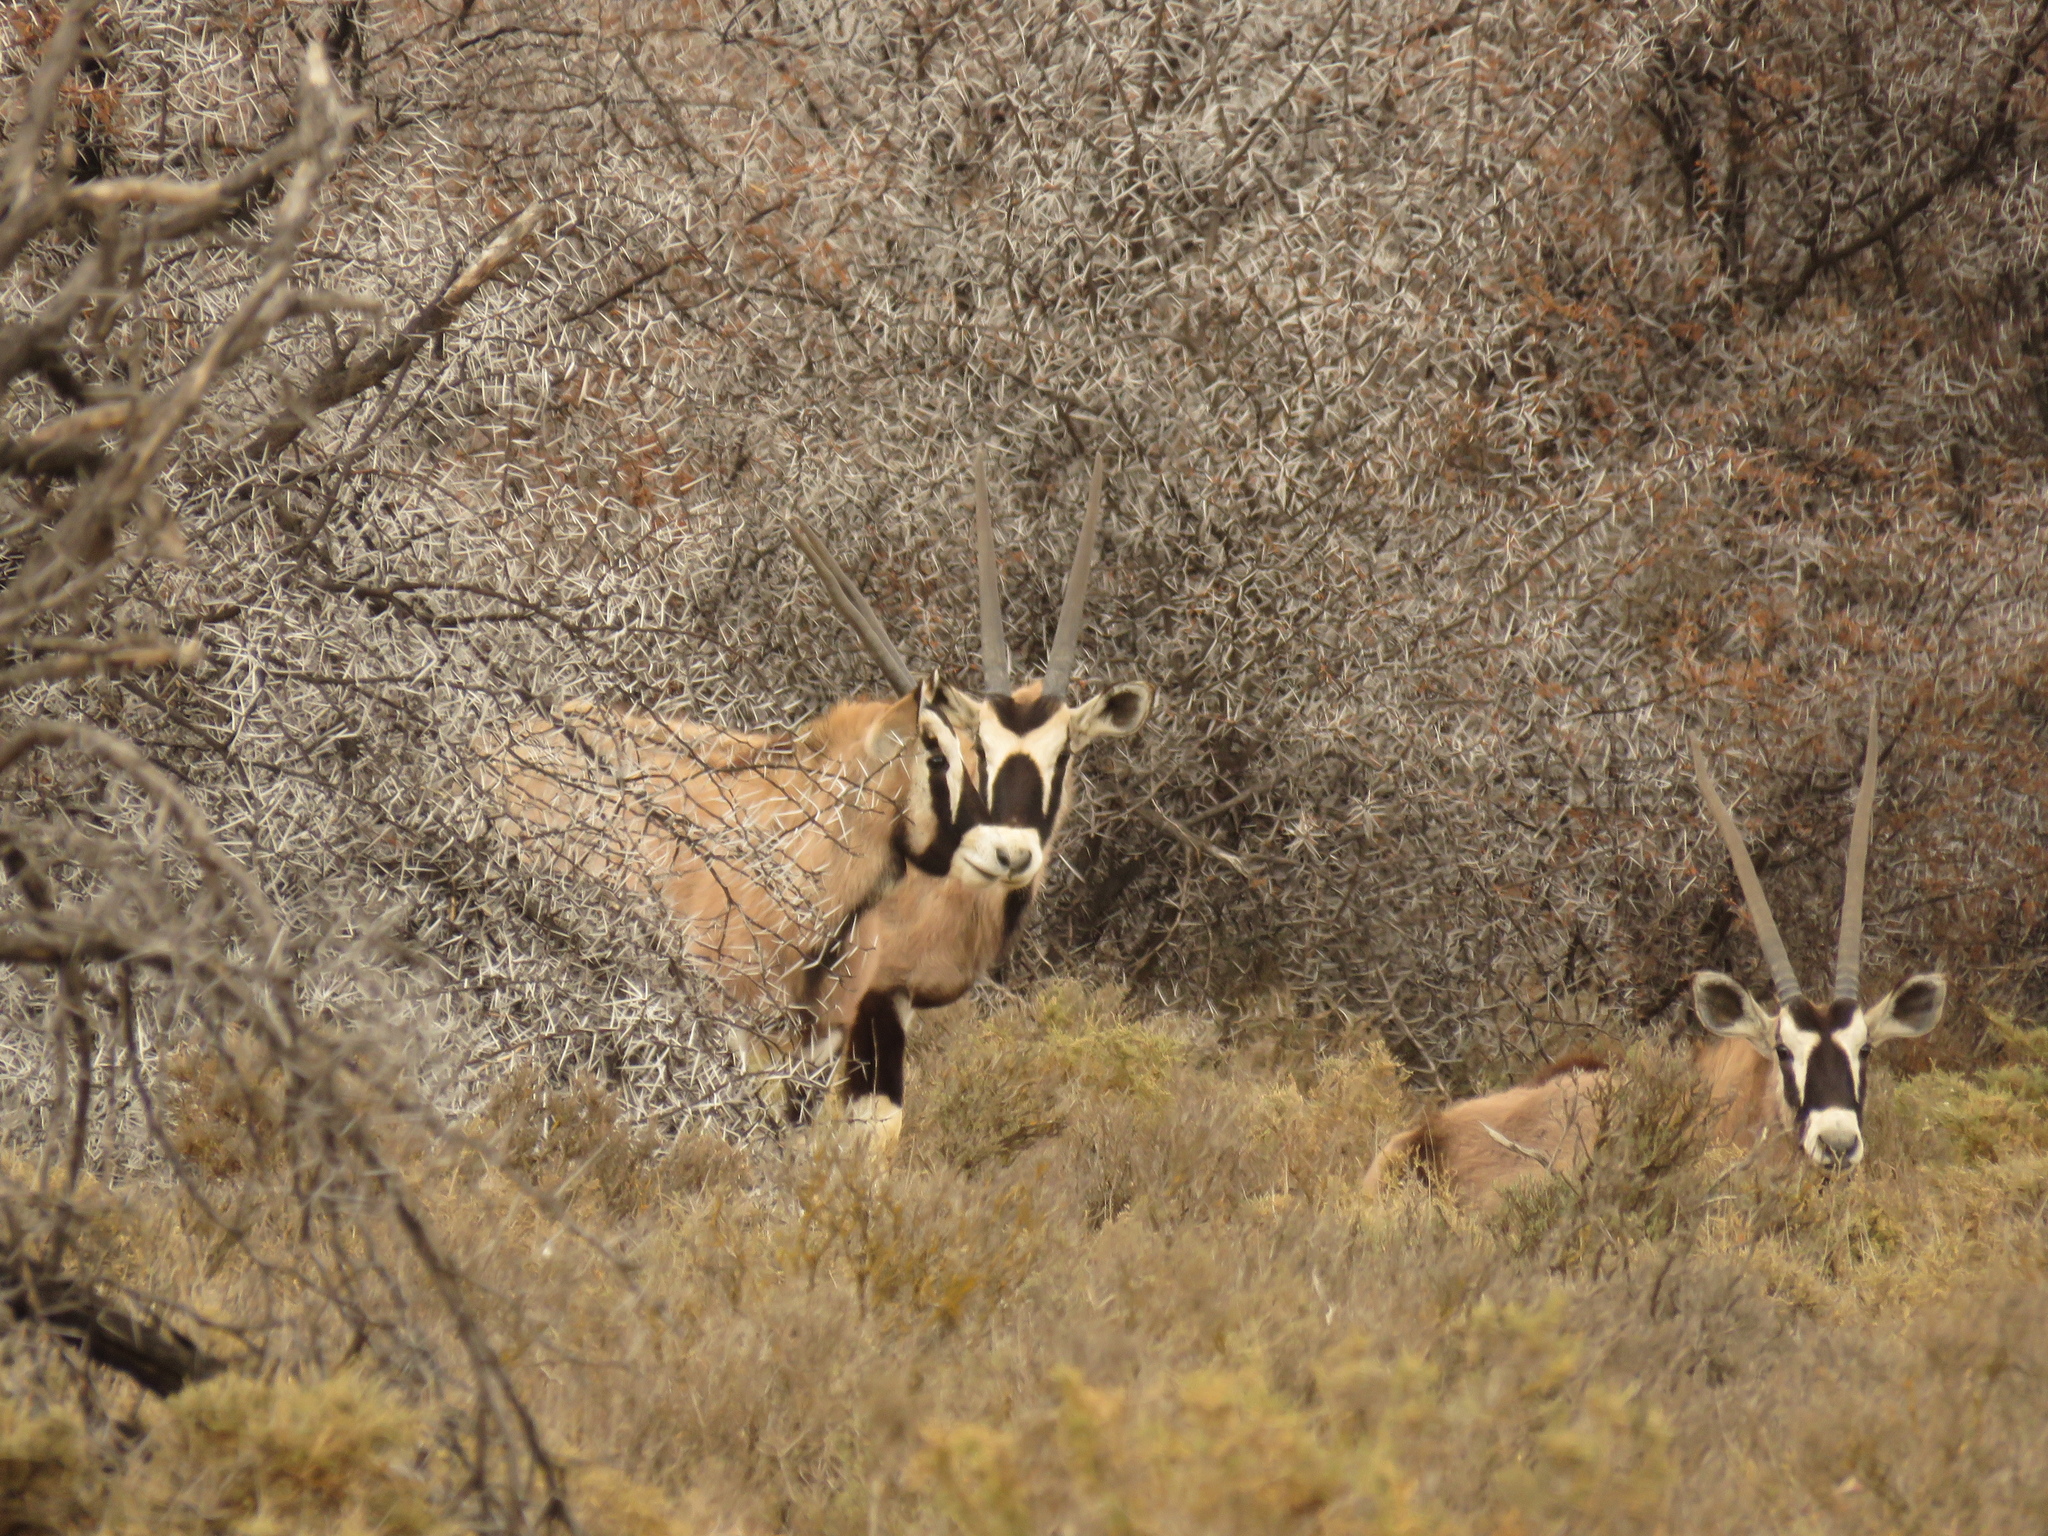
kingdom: Animalia
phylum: Chordata
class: Mammalia
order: Artiodactyla
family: Bovidae
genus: Oryx
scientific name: Oryx gazella
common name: Gemsbok
